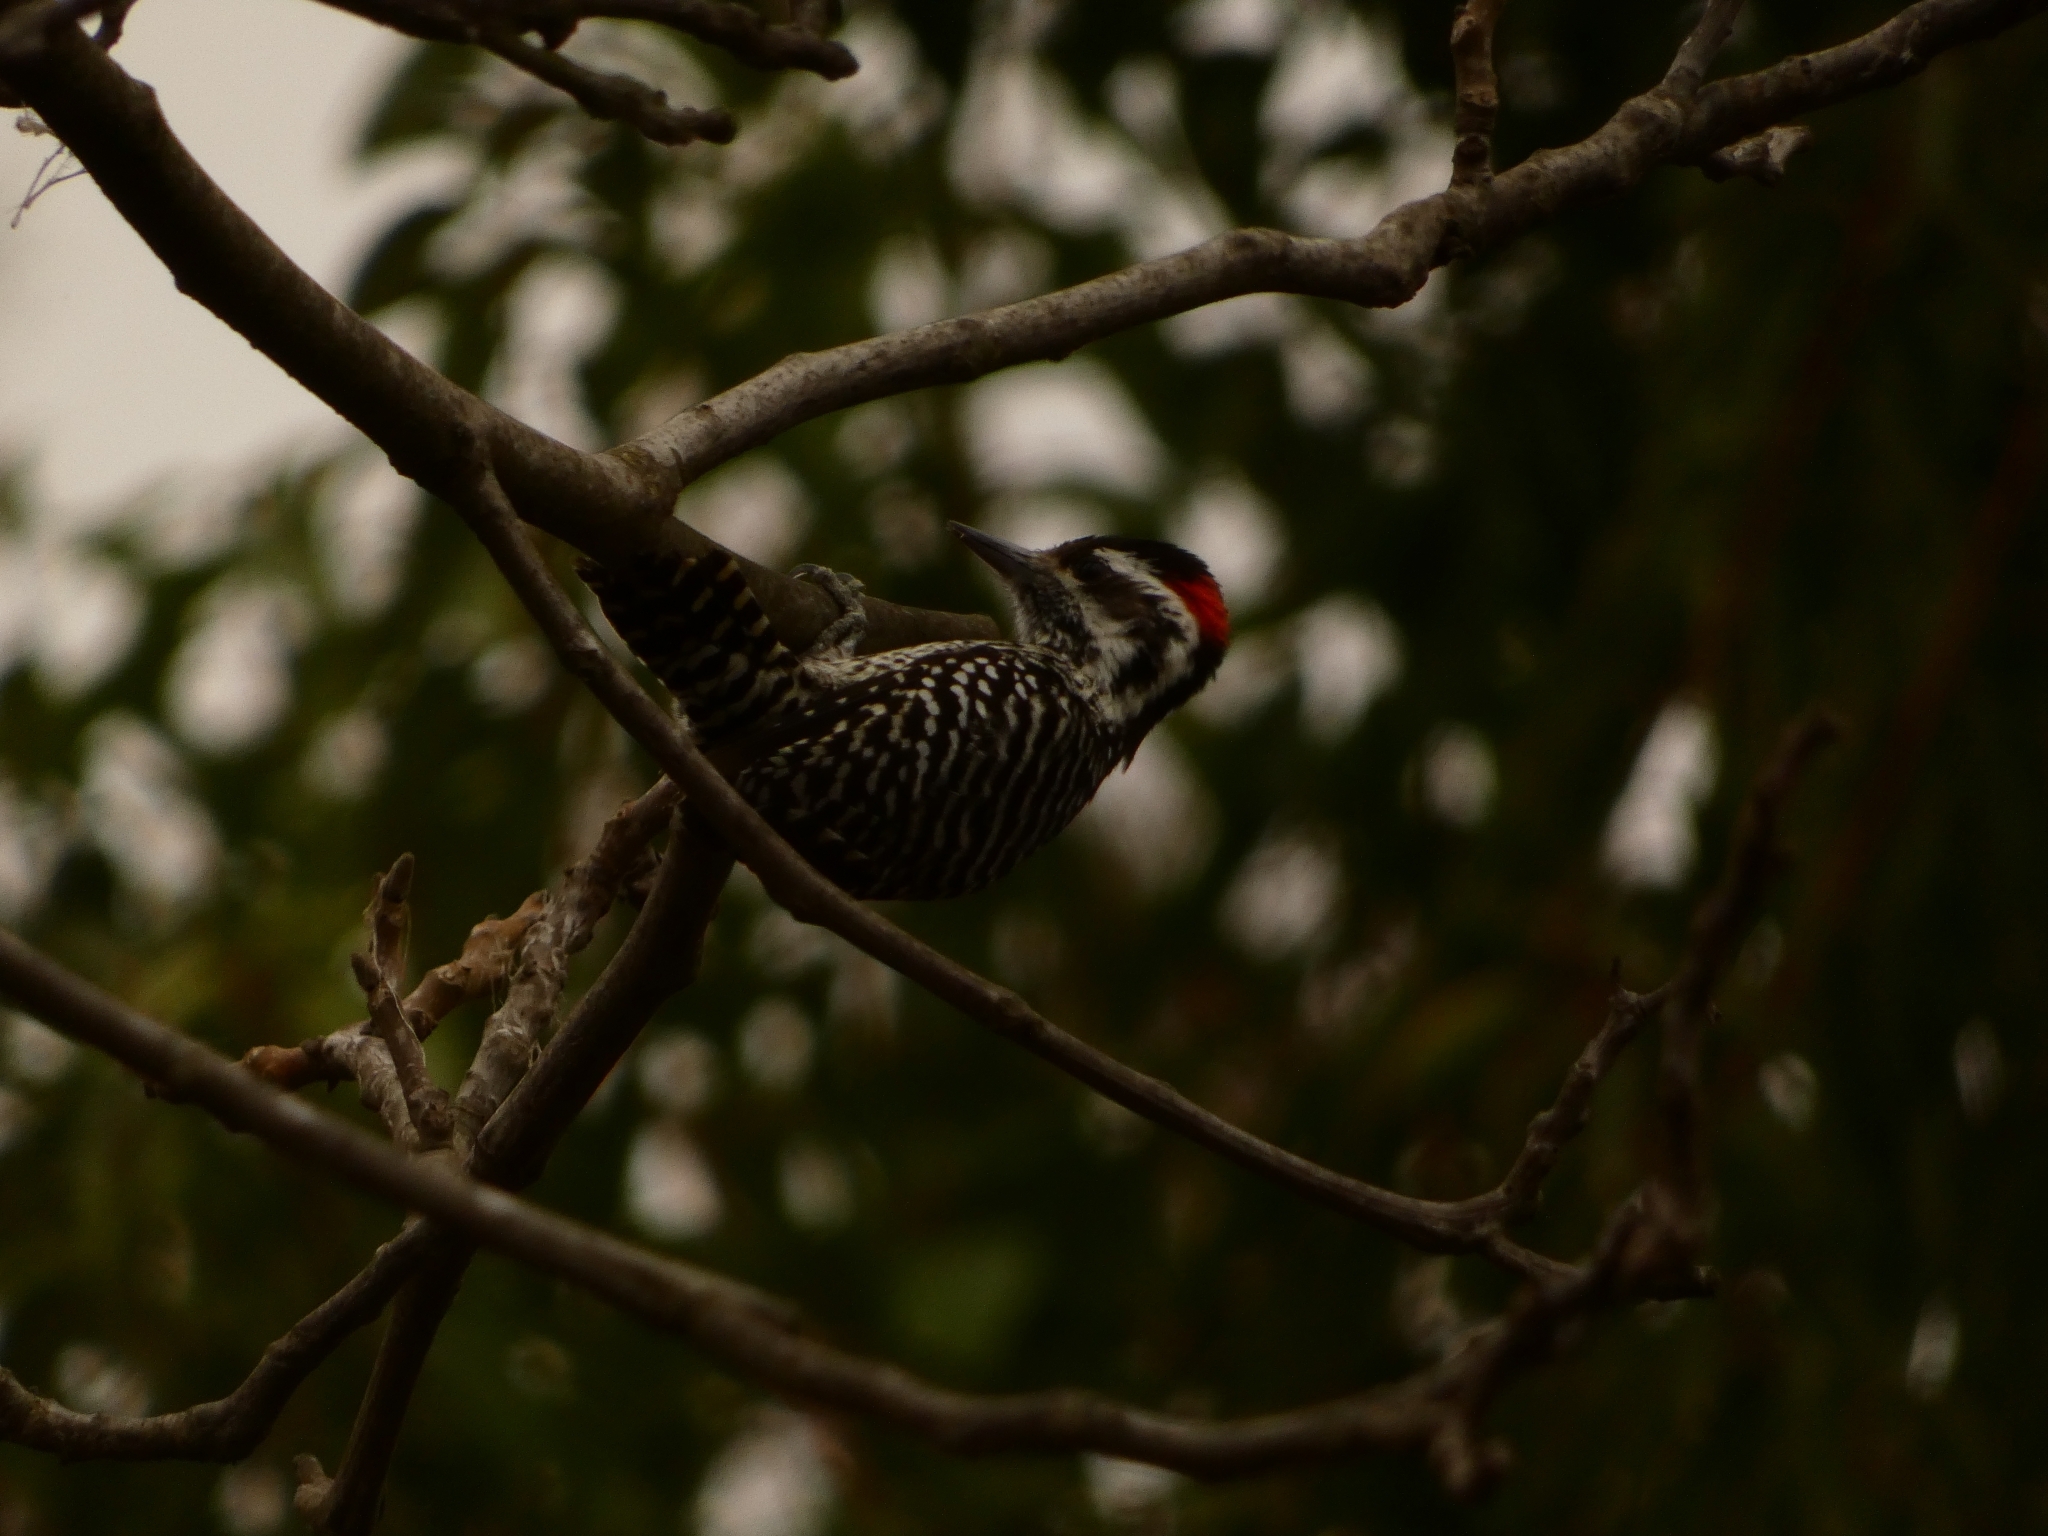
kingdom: Animalia
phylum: Chordata
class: Aves
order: Piciformes
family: Picidae
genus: Veniliornis
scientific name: Veniliornis lignarius
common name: Striped woodpecker
